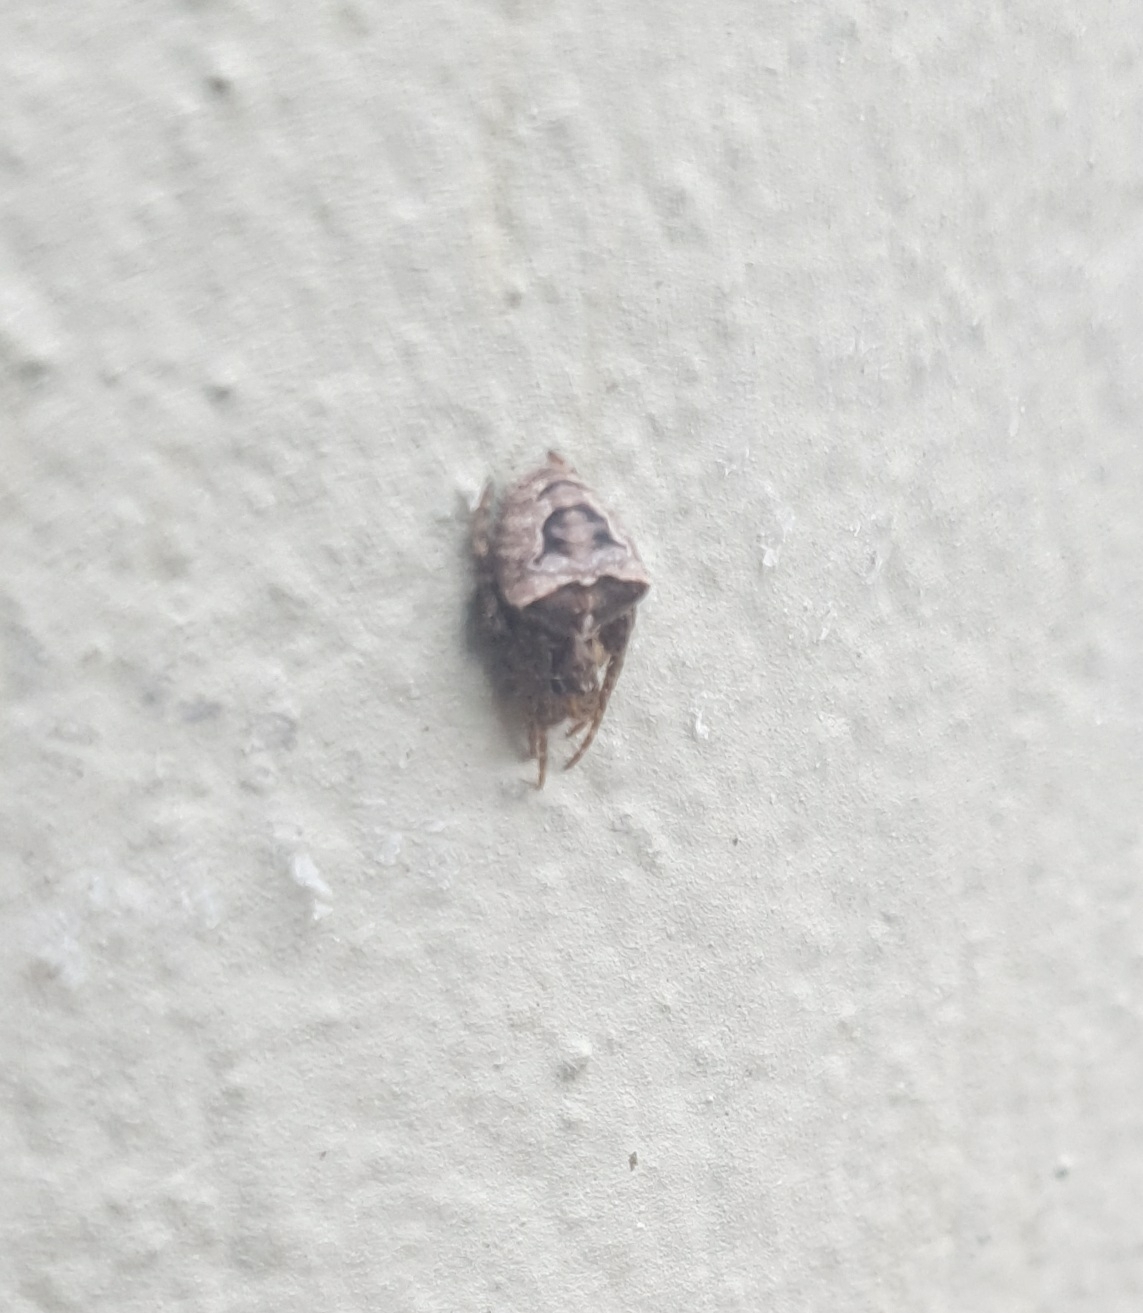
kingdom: Animalia
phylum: Arthropoda
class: Arachnida
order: Araneae
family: Araneidae
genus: Gibbaranea
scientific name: Gibbaranea bituberculata
